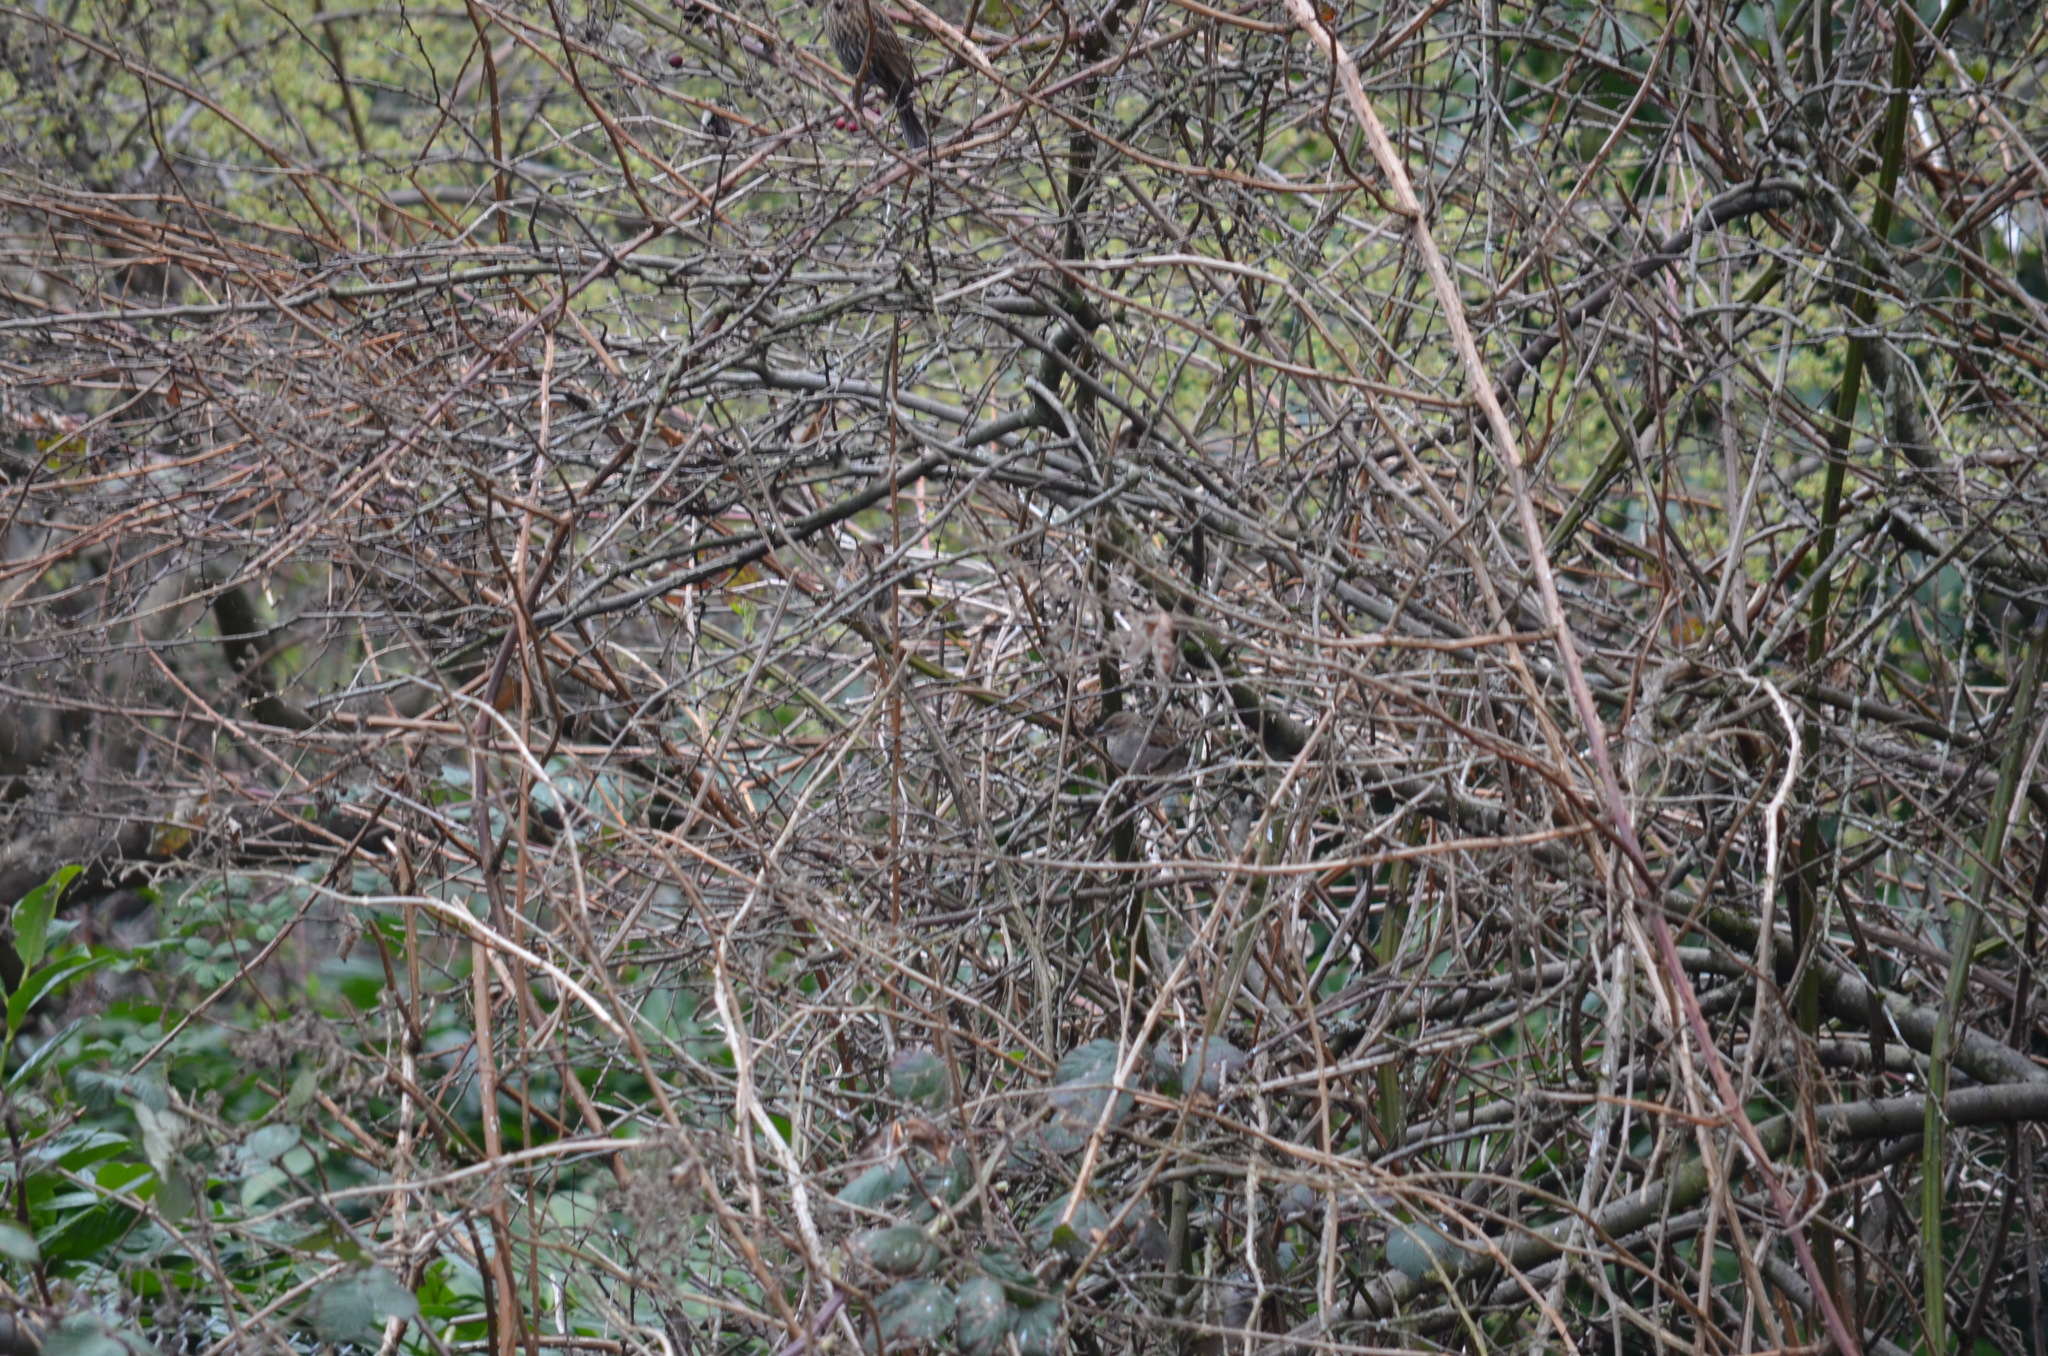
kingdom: Animalia
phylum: Chordata
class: Aves
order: Passeriformes
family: Passeridae
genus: Passer
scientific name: Passer domesticus
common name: House sparrow
